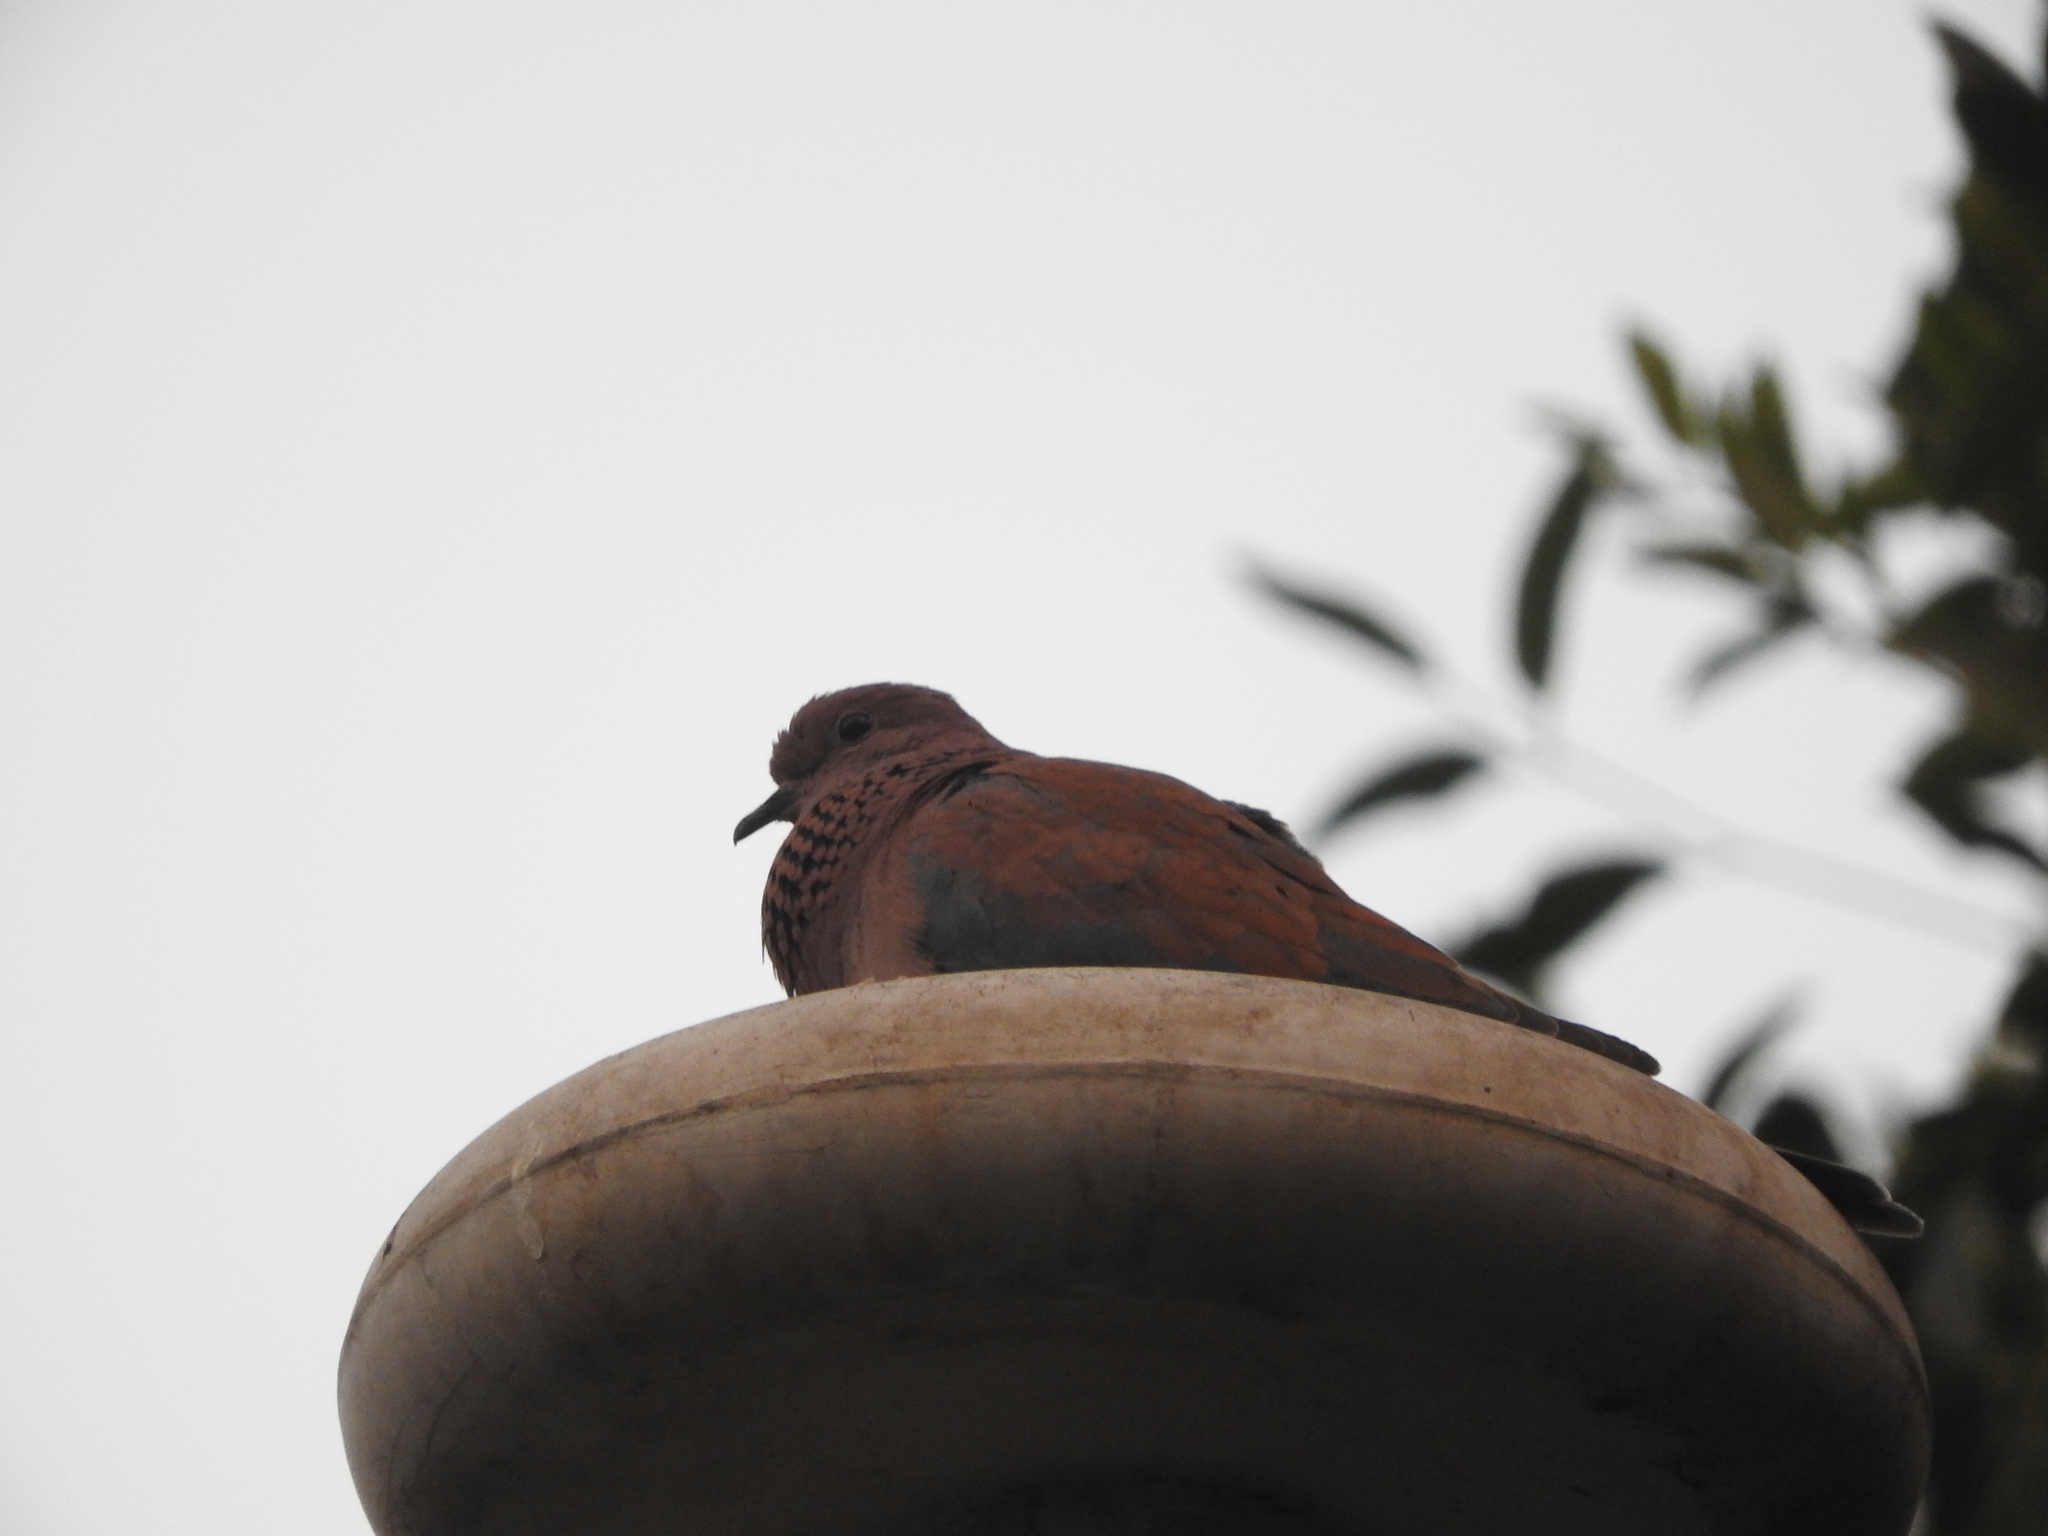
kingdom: Animalia
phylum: Chordata
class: Aves
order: Columbiformes
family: Columbidae
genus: Spilopelia
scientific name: Spilopelia senegalensis
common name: Laughing dove
